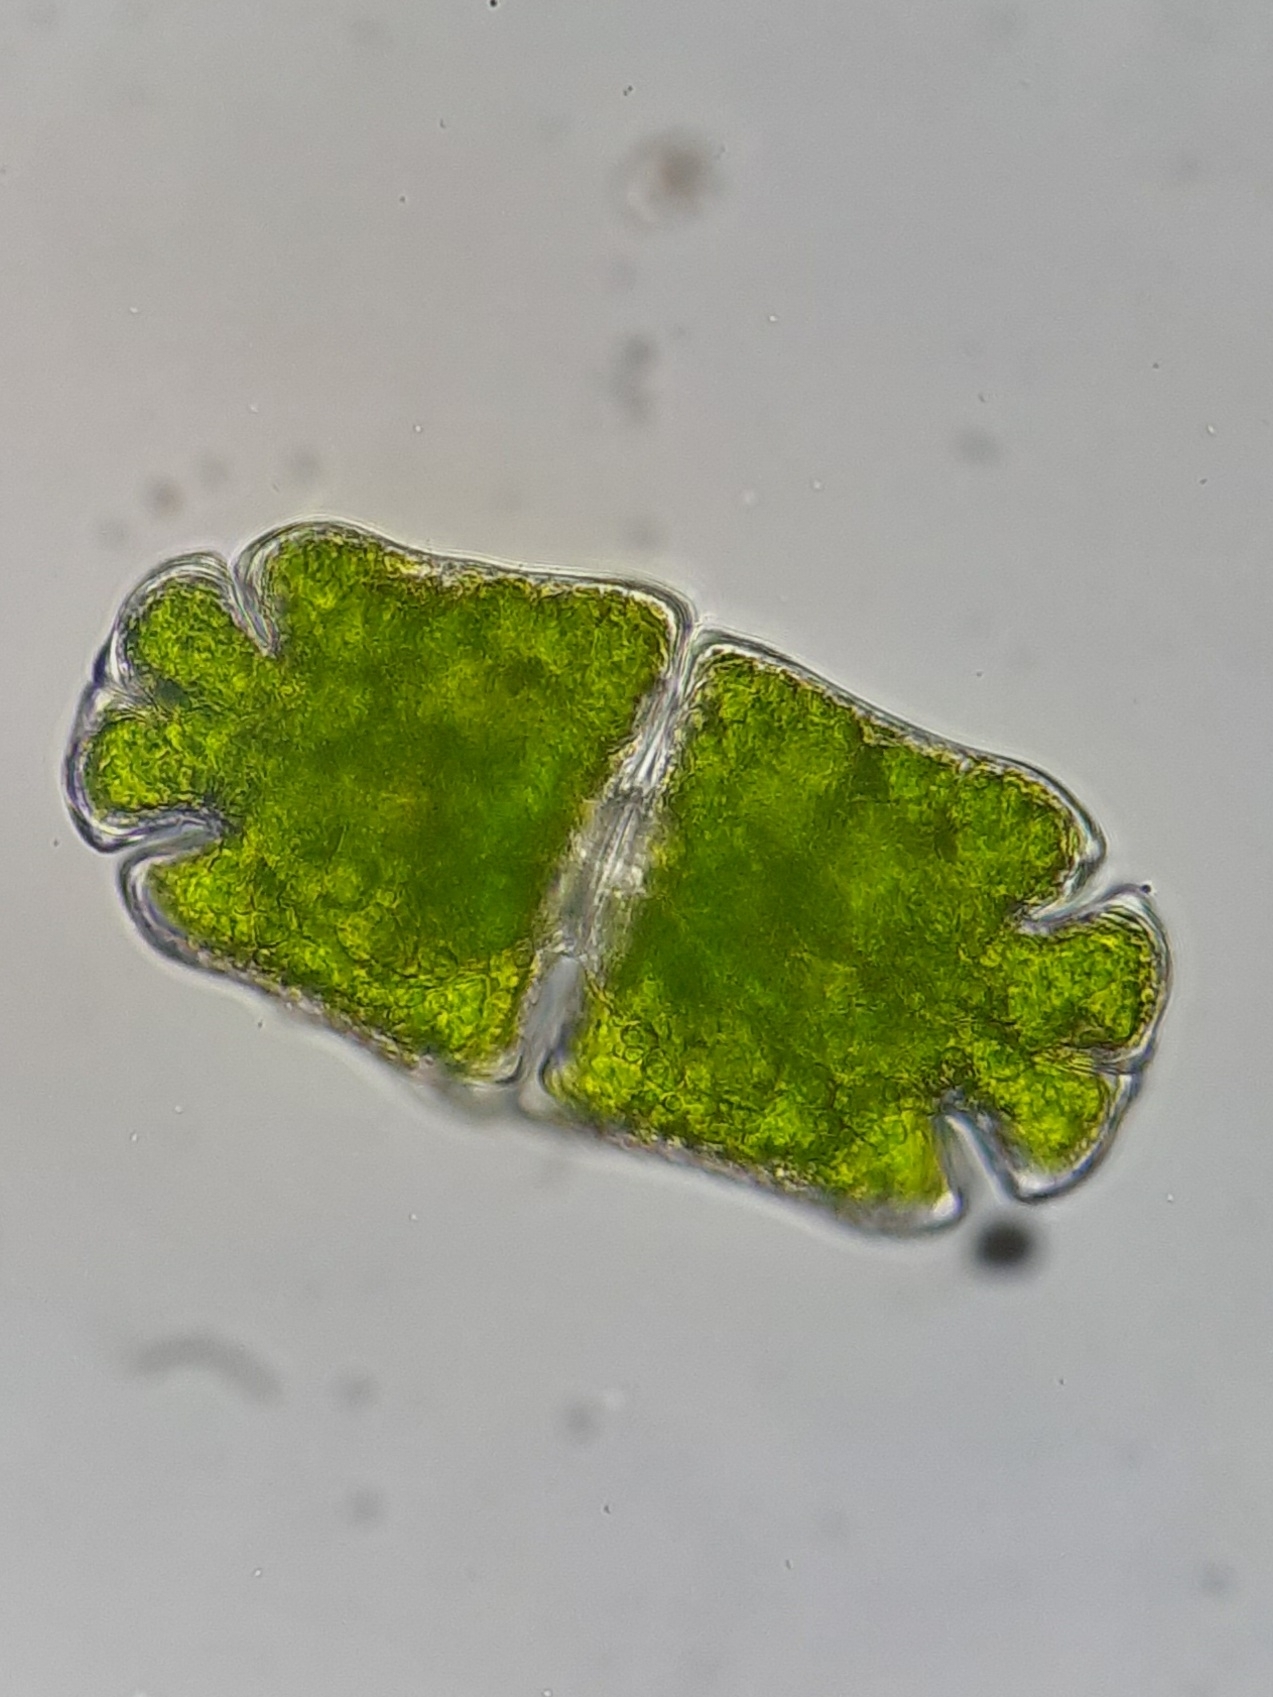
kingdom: Plantae
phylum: Charophyta
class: Conjugatophyceae
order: Desmidiales
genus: Euastrum
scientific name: Euastrum crassum
